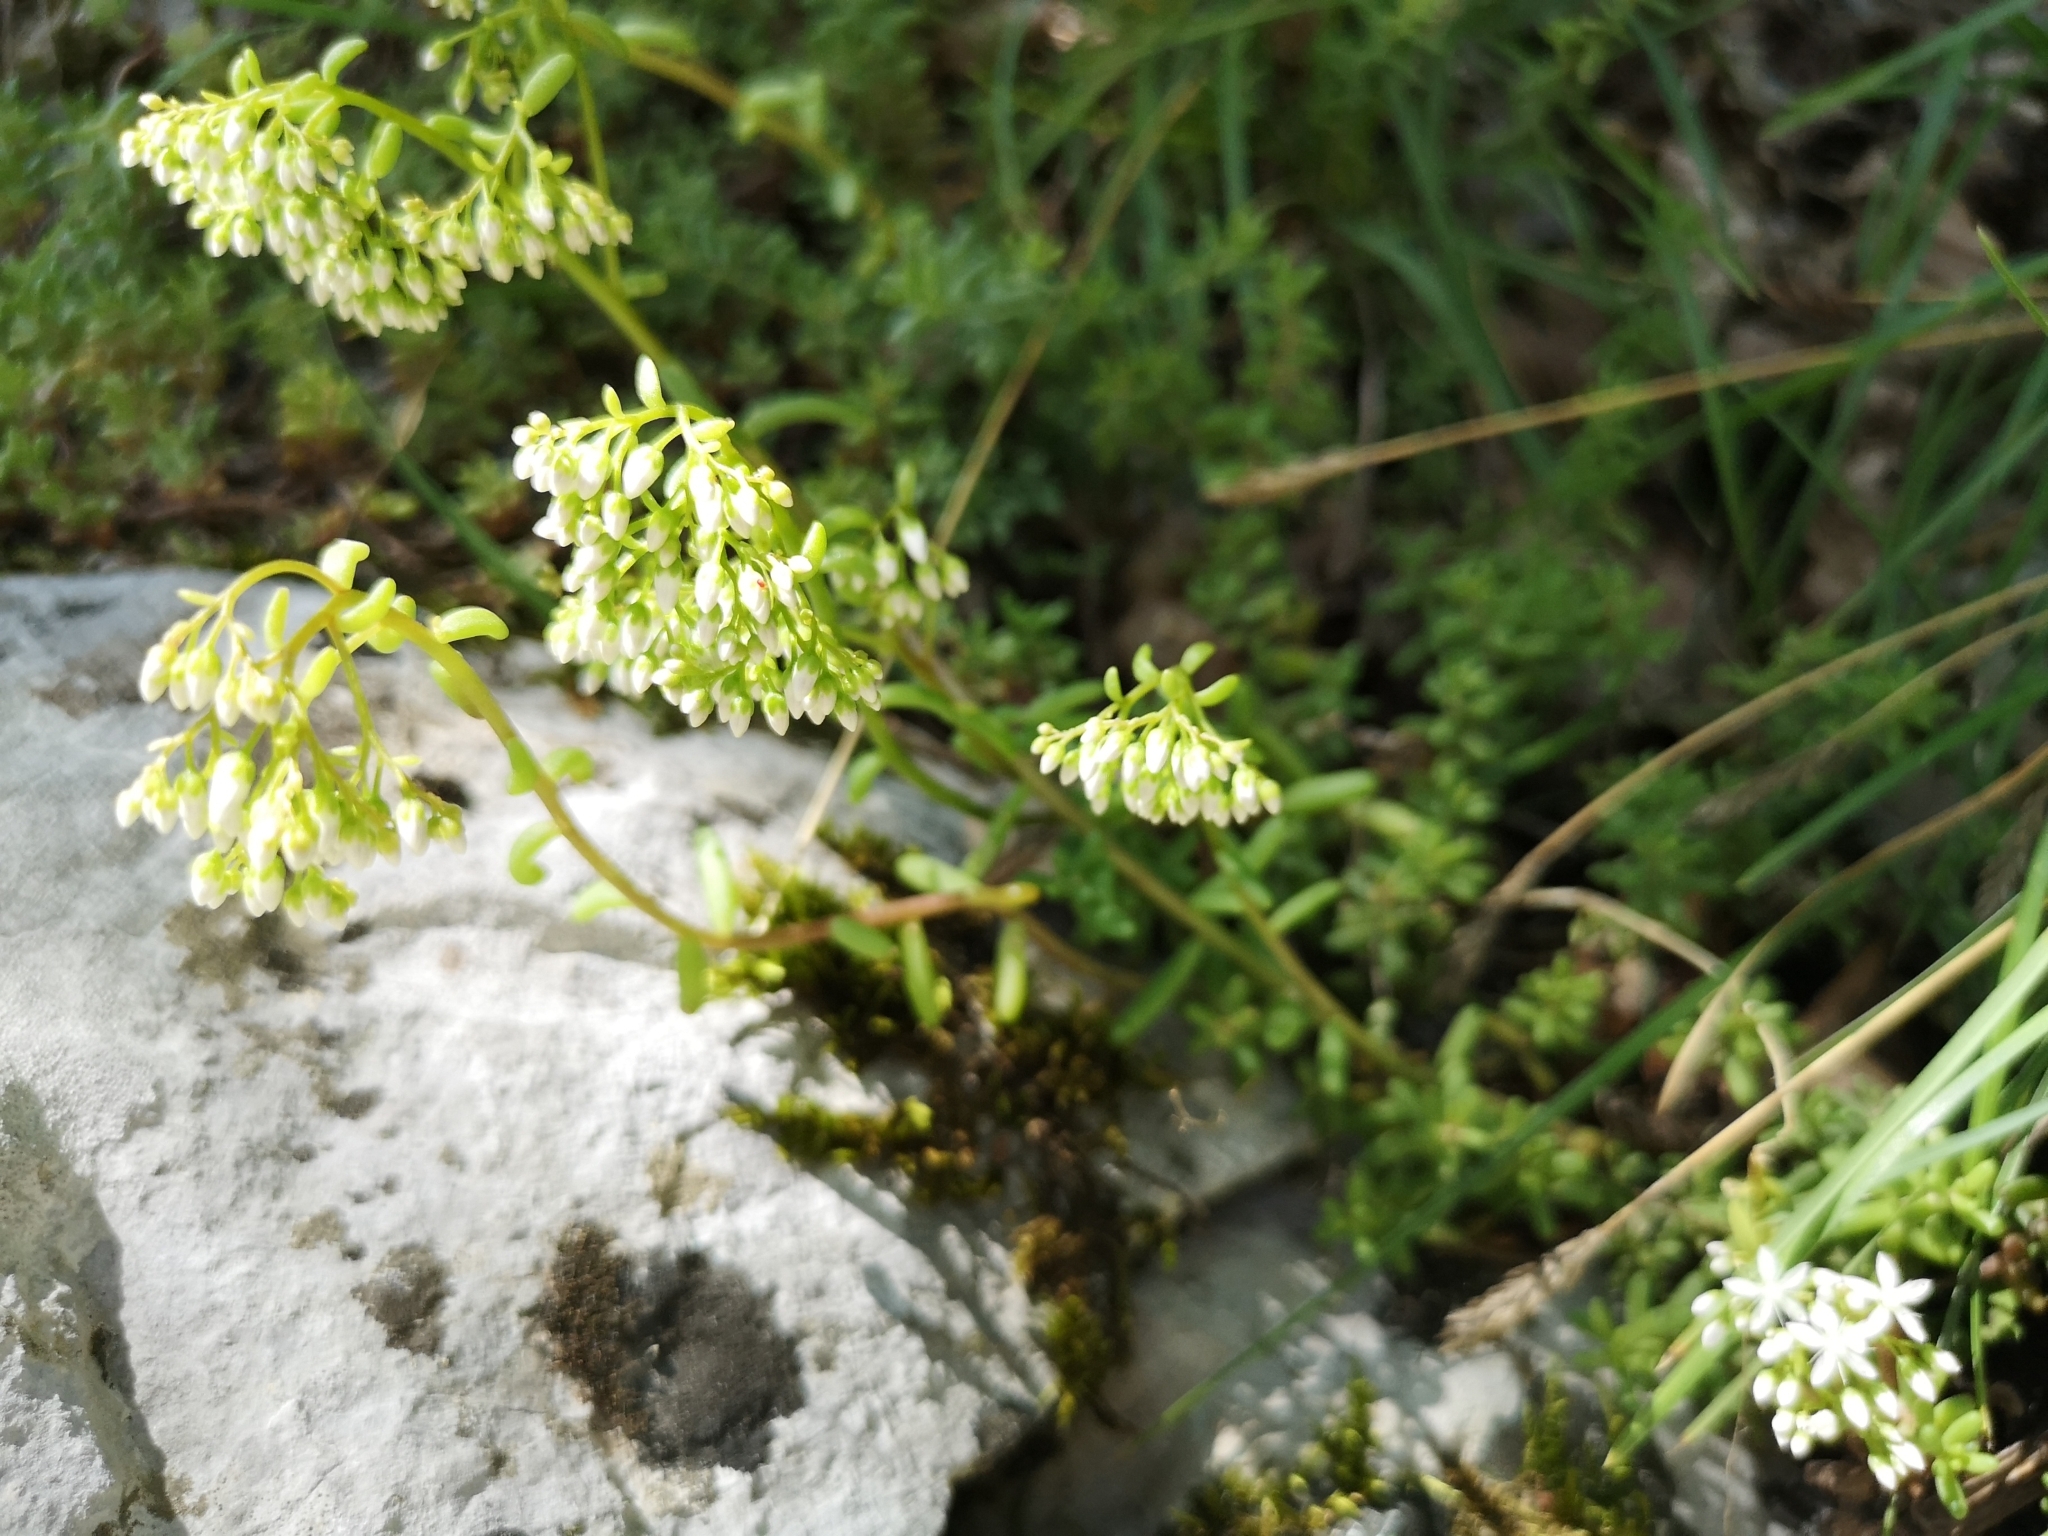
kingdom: Plantae
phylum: Tracheophyta
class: Magnoliopsida
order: Saxifragales
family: Crassulaceae
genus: Sedum
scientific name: Sedum album
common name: White stonecrop
